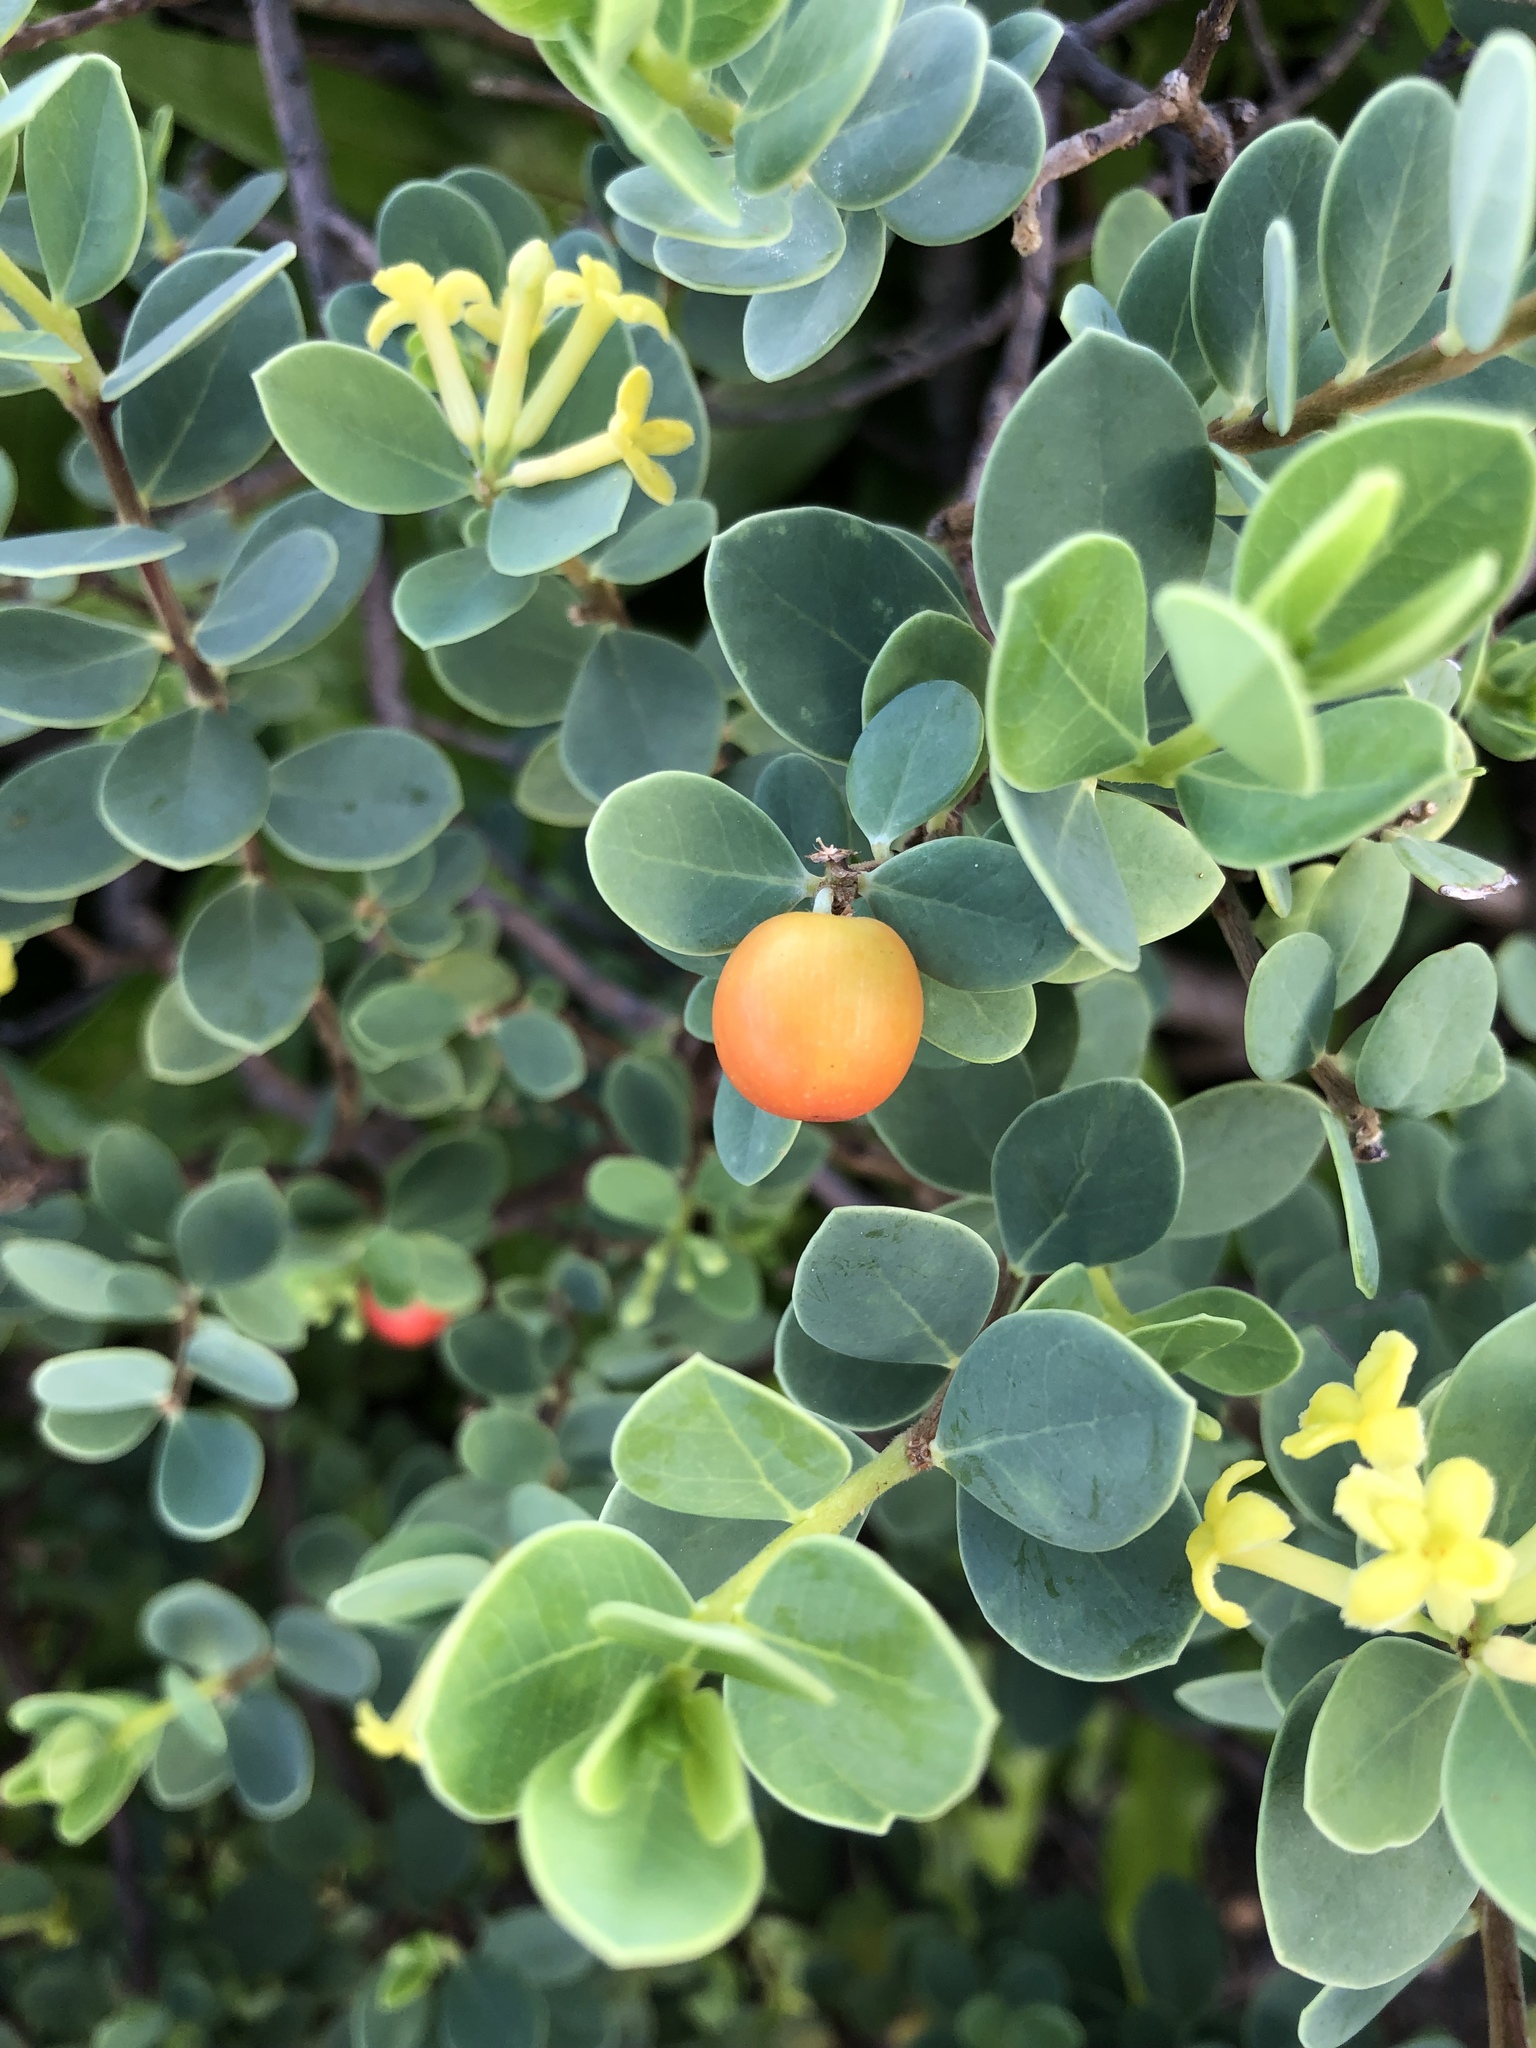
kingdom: Plantae
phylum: Tracheophyta
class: Magnoliopsida
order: Malvales
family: Thymelaeaceae
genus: Wikstroemia
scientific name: Wikstroemia uva-ursi
